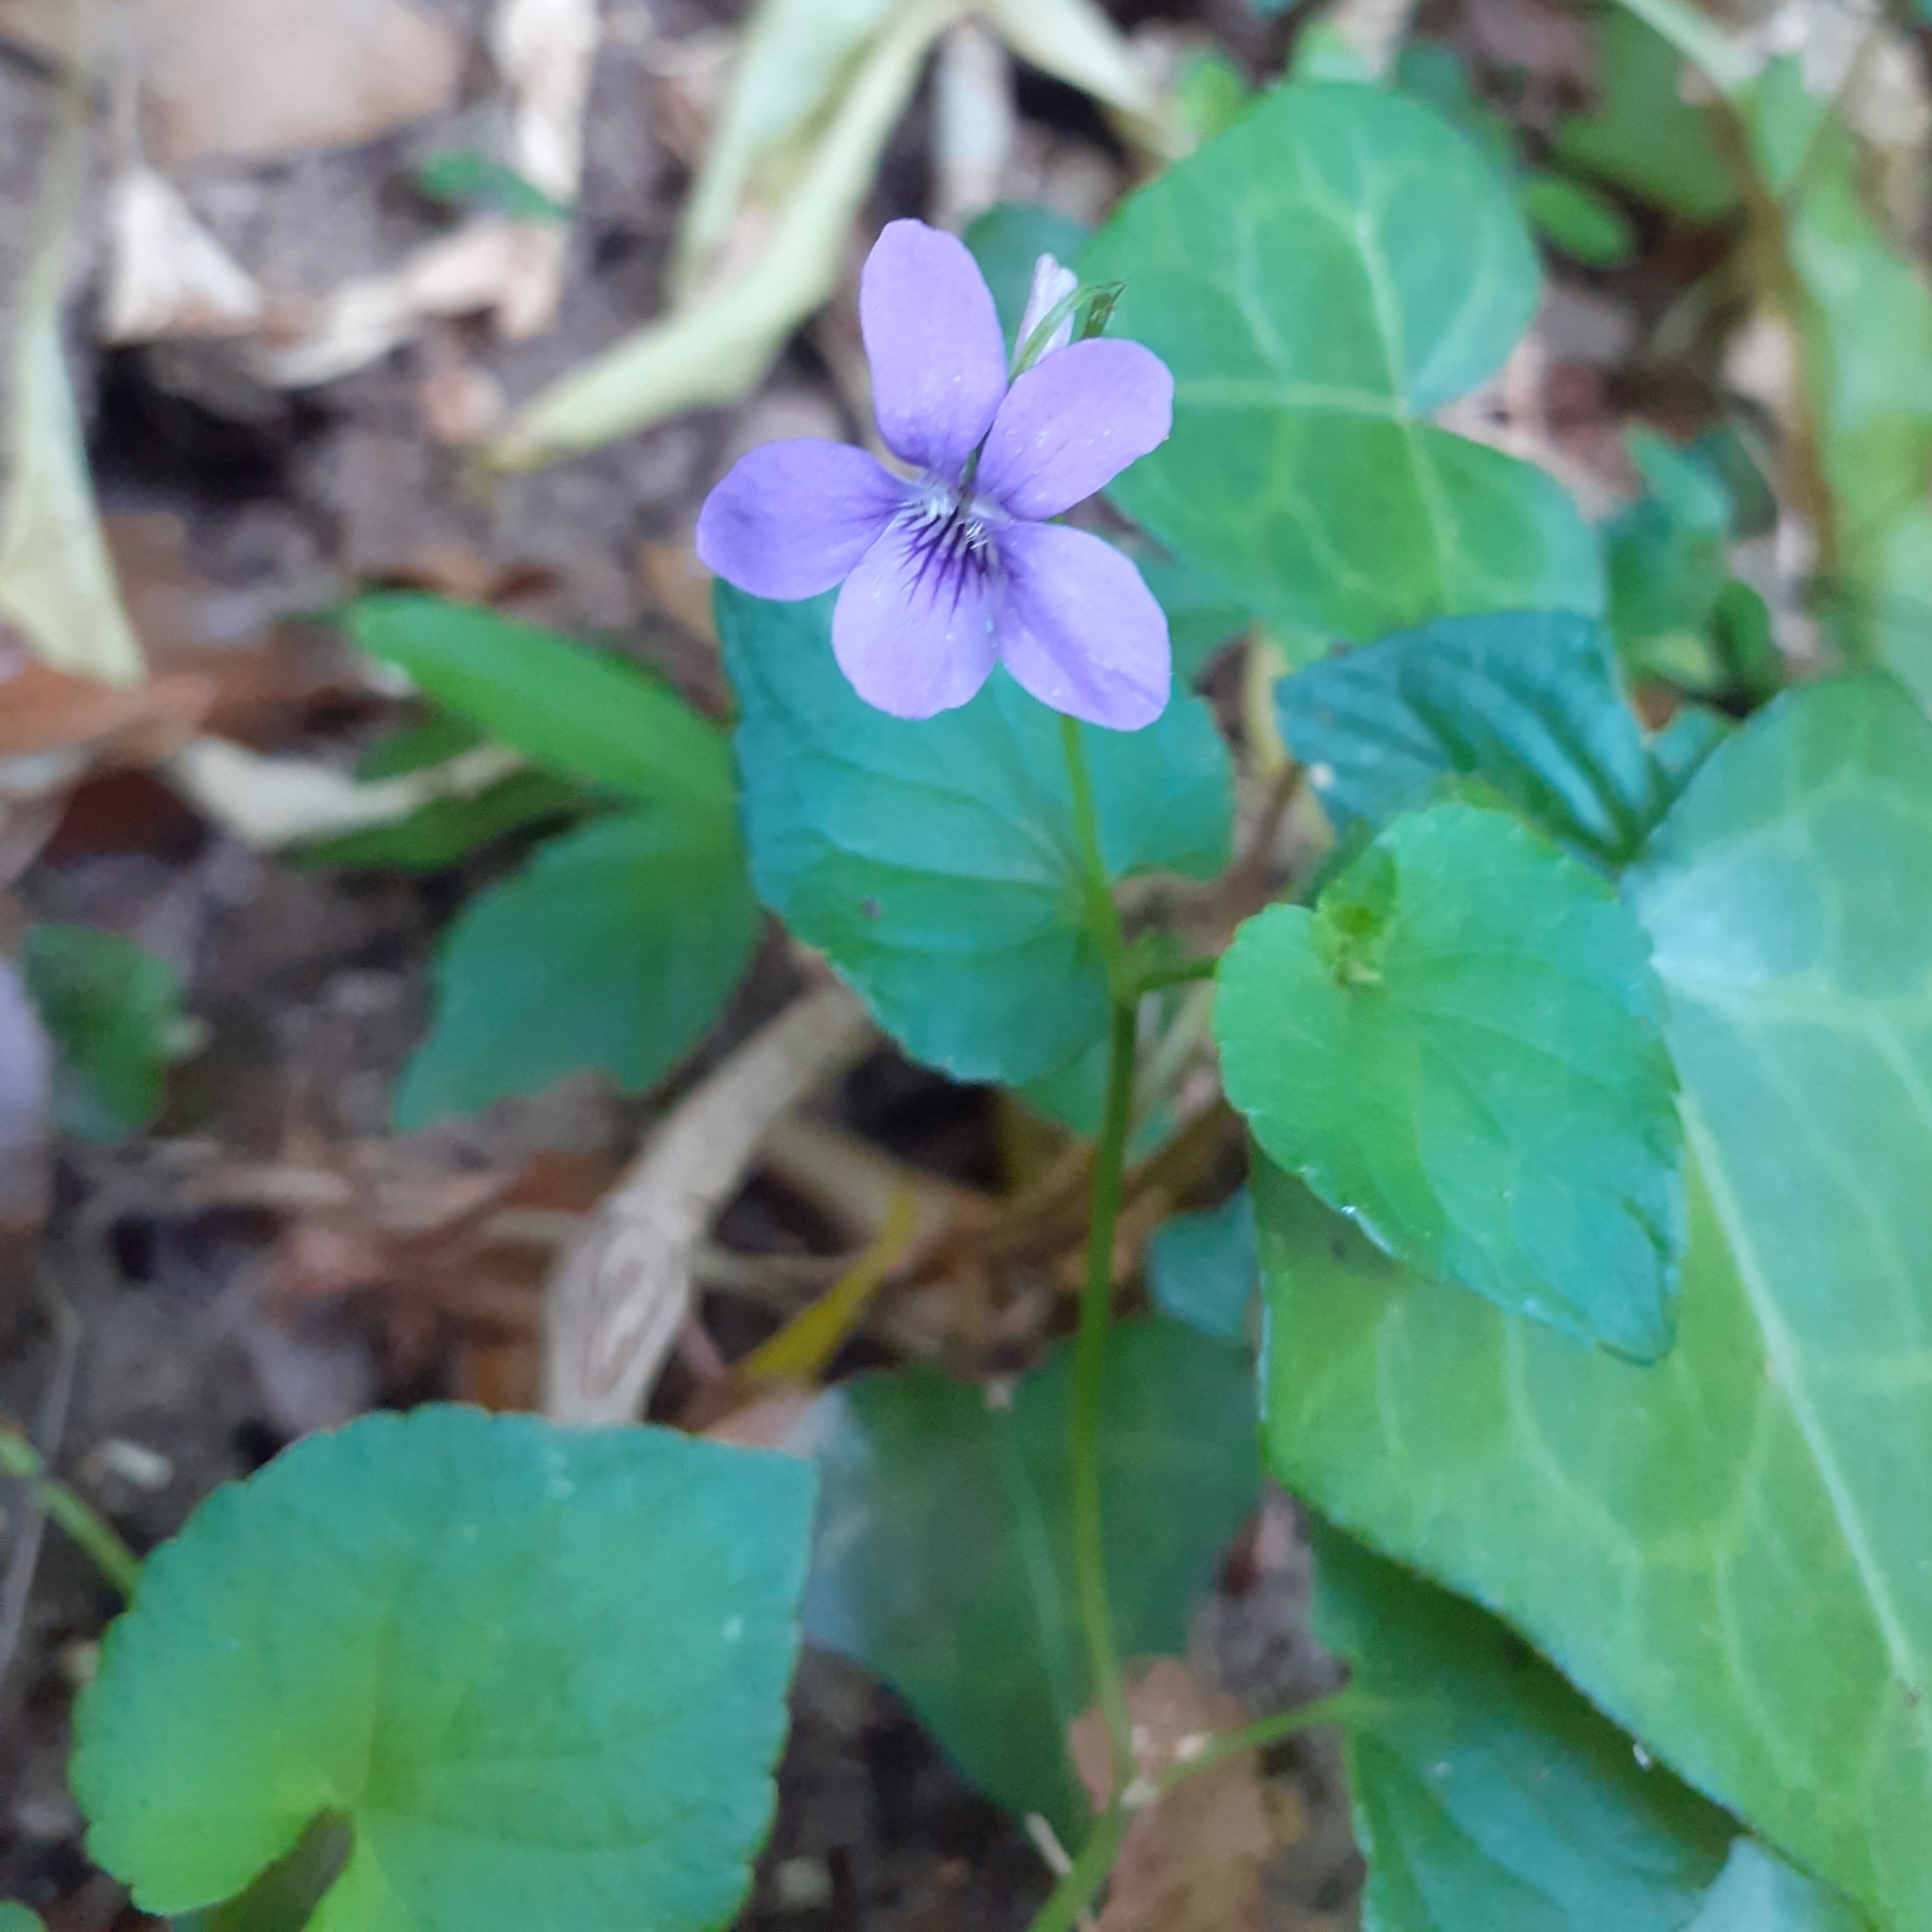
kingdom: Plantae
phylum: Tracheophyta
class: Magnoliopsida
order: Malpighiales
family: Violaceae
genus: Viola
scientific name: Viola riviniana
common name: Common dog-violet
